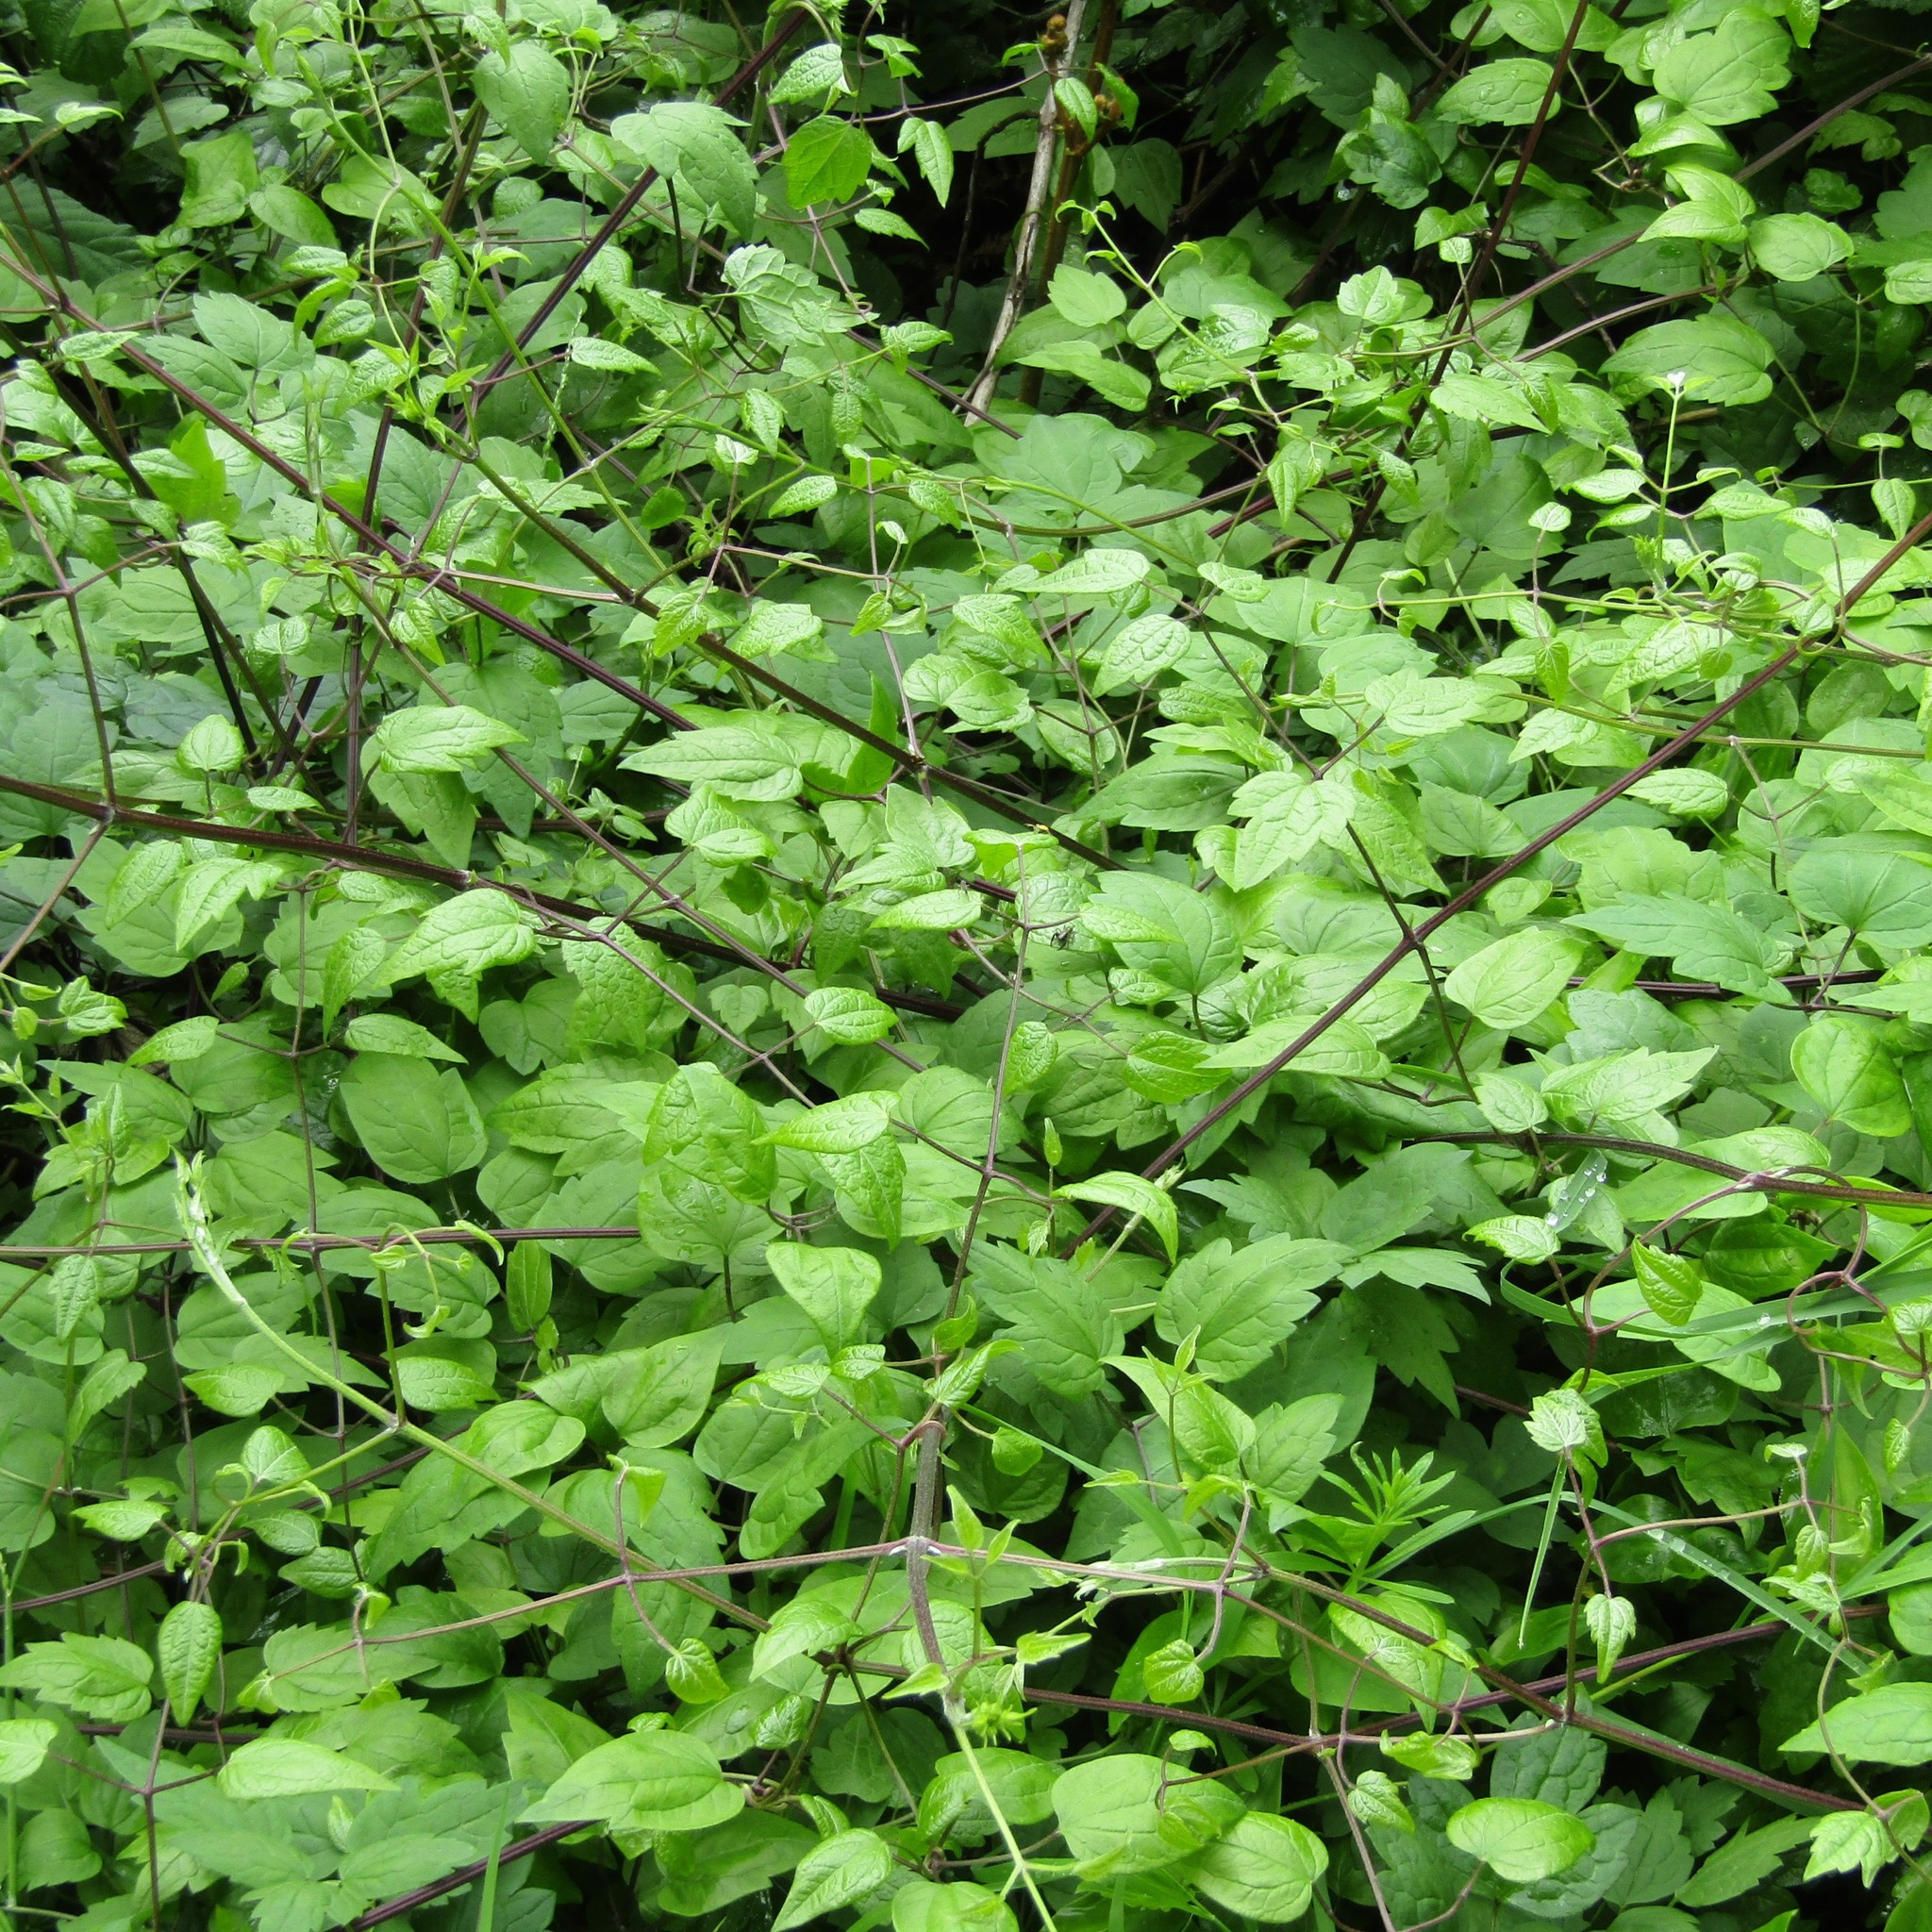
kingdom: Plantae
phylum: Tracheophyta
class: Magnoliopsida
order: Ranunculales
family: Ranunculaceae
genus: Clematis
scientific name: Clematis vitalba
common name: Evergreen clematis
